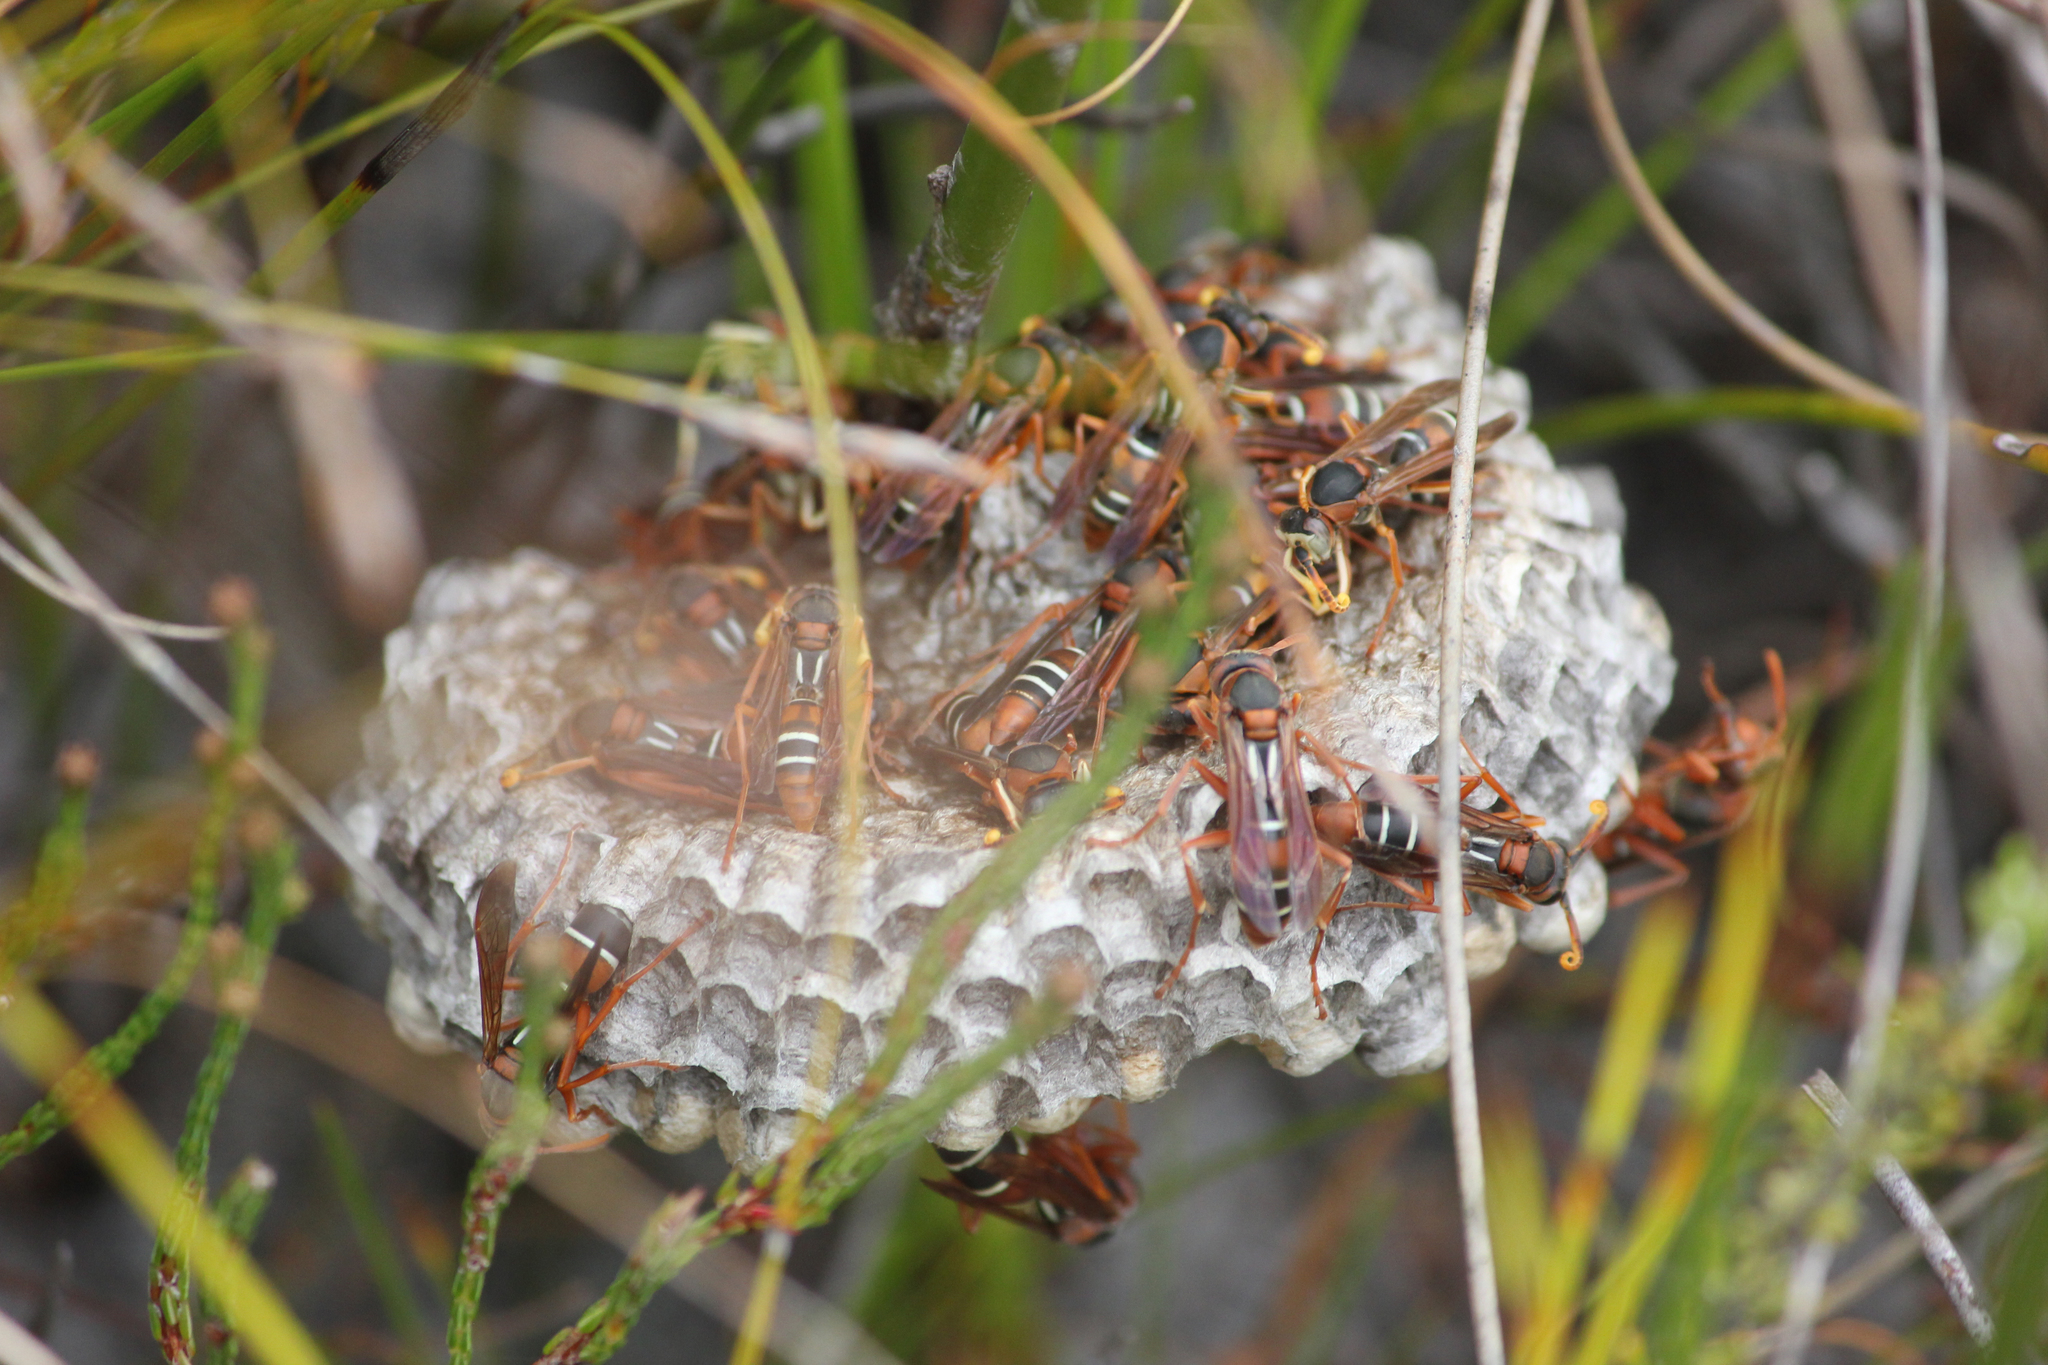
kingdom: Animalia
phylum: Arthropoda
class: Insecta
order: Hymenoptera
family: Eumenidae
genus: Polistes
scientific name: Polistes marginalis
